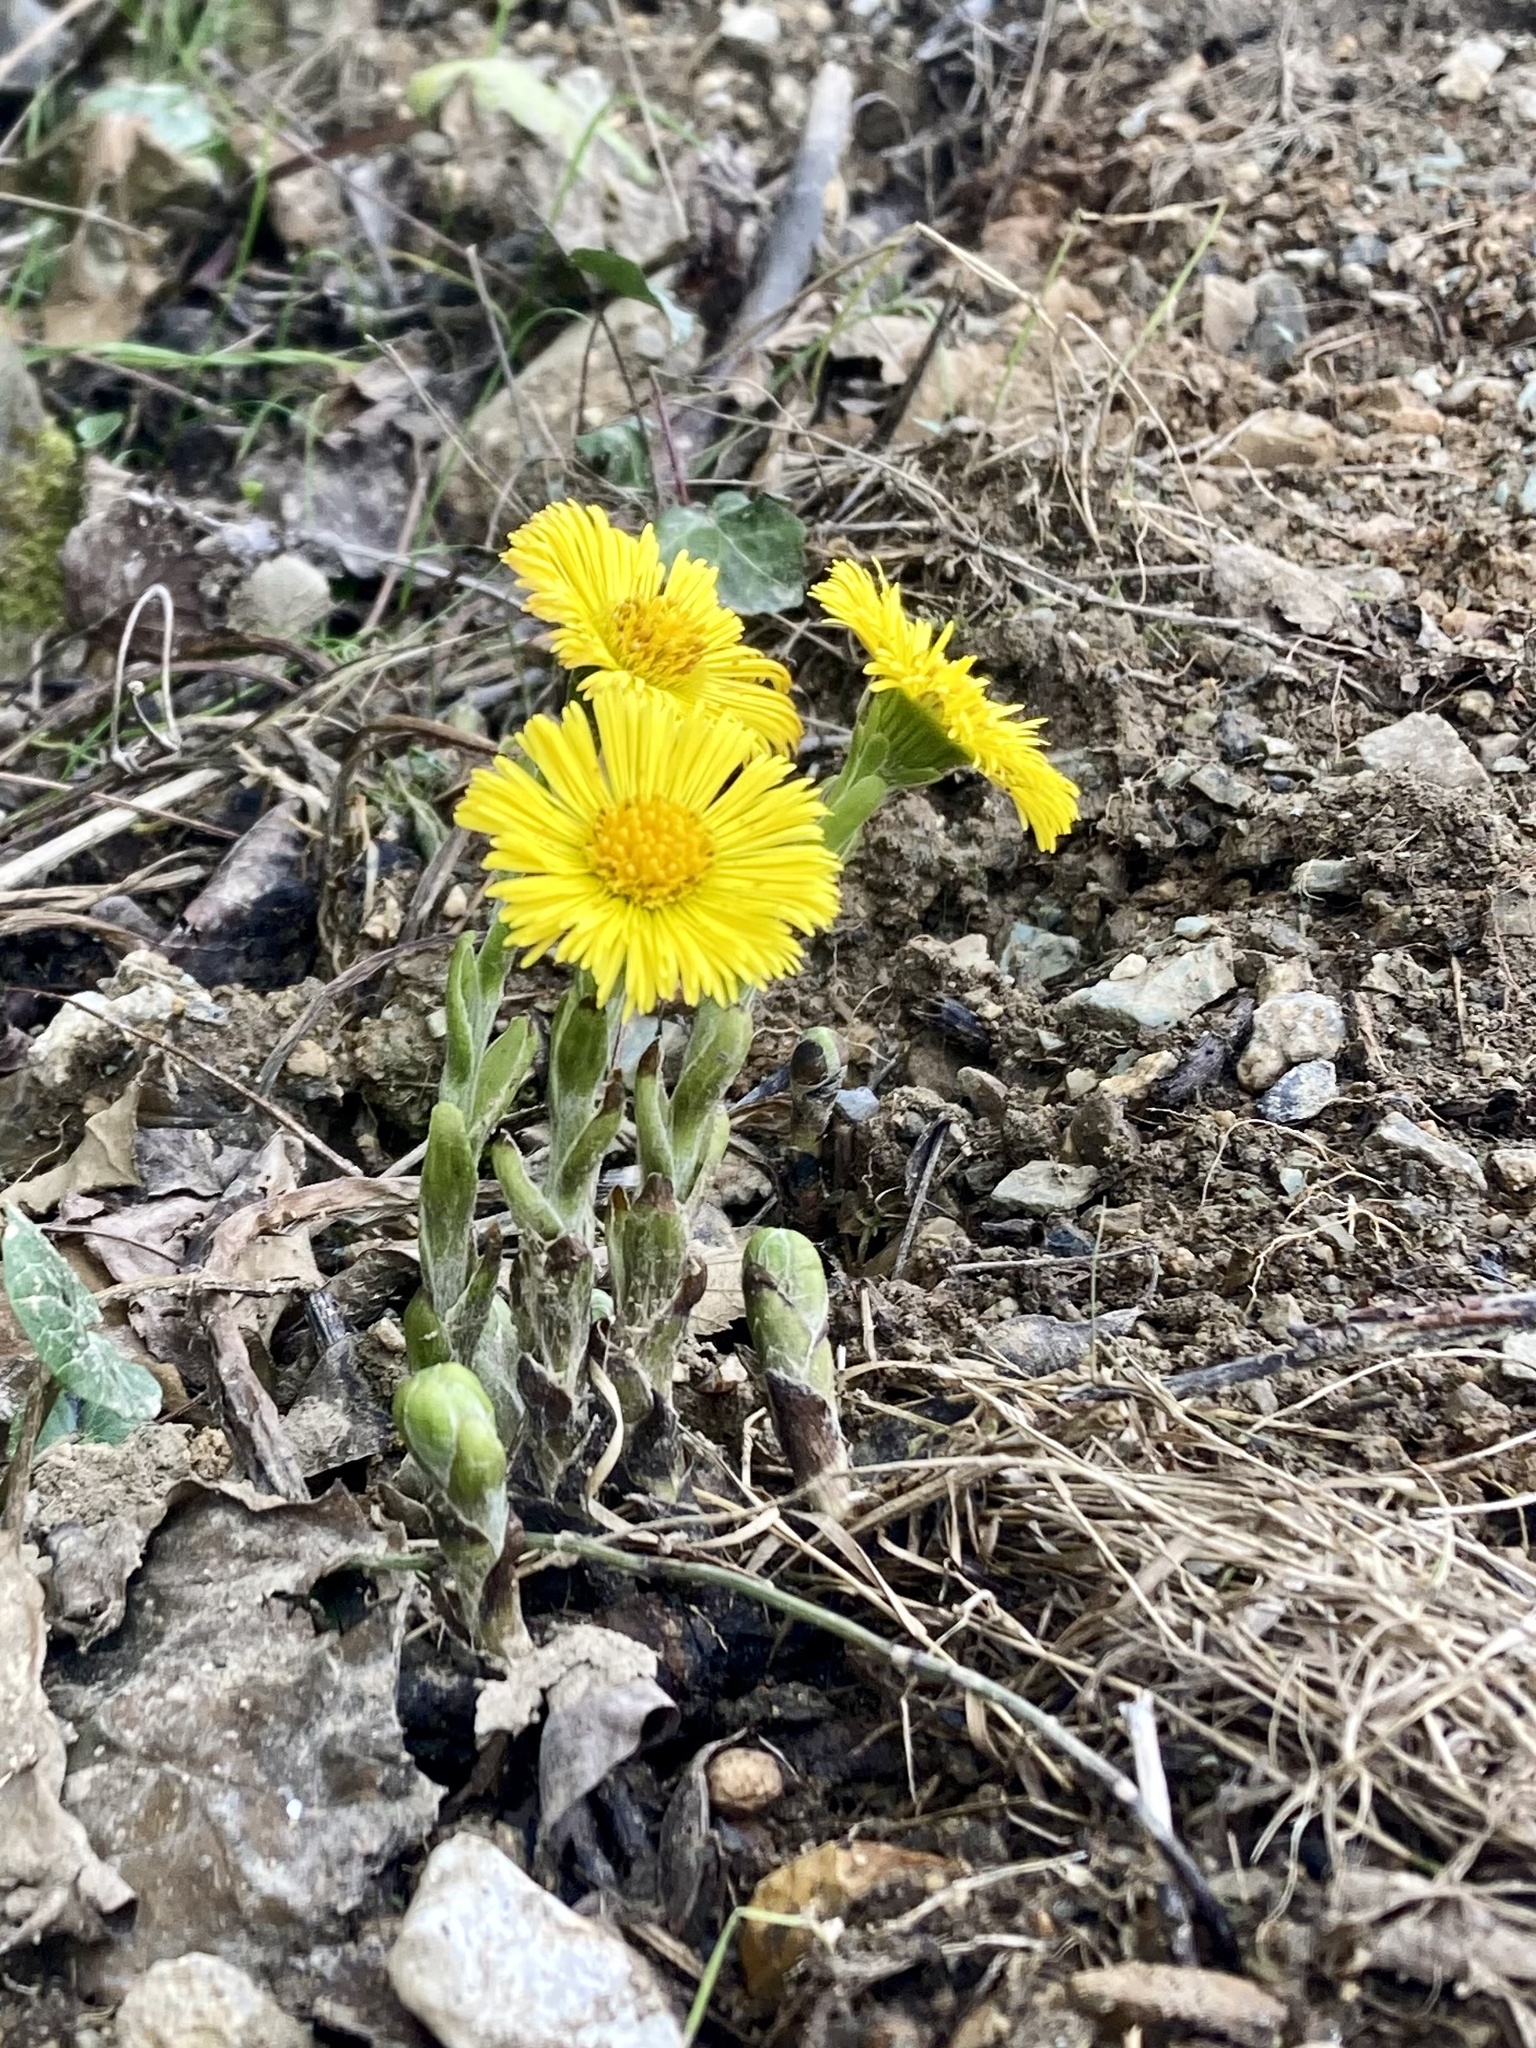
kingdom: Plantae
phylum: Tracheophyta
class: Magnoliopsida
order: Asterales
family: Asteraceae
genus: Tussilago
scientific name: Tussilago farfara
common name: Coltsfoot
